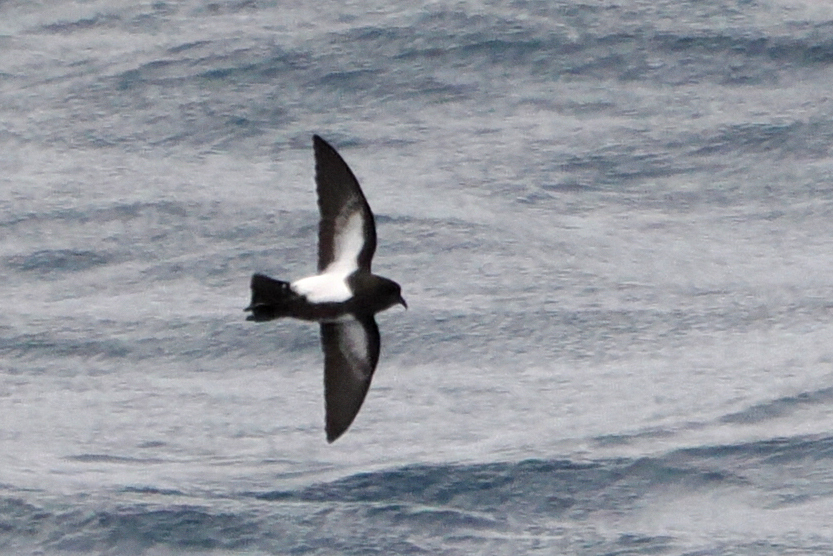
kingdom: Animalia
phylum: Chordata
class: Aves
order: Procellariiformes
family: Hydrobatidae
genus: Fregetta
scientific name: Fregetta tropica
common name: Black-bellied storm-petrel
